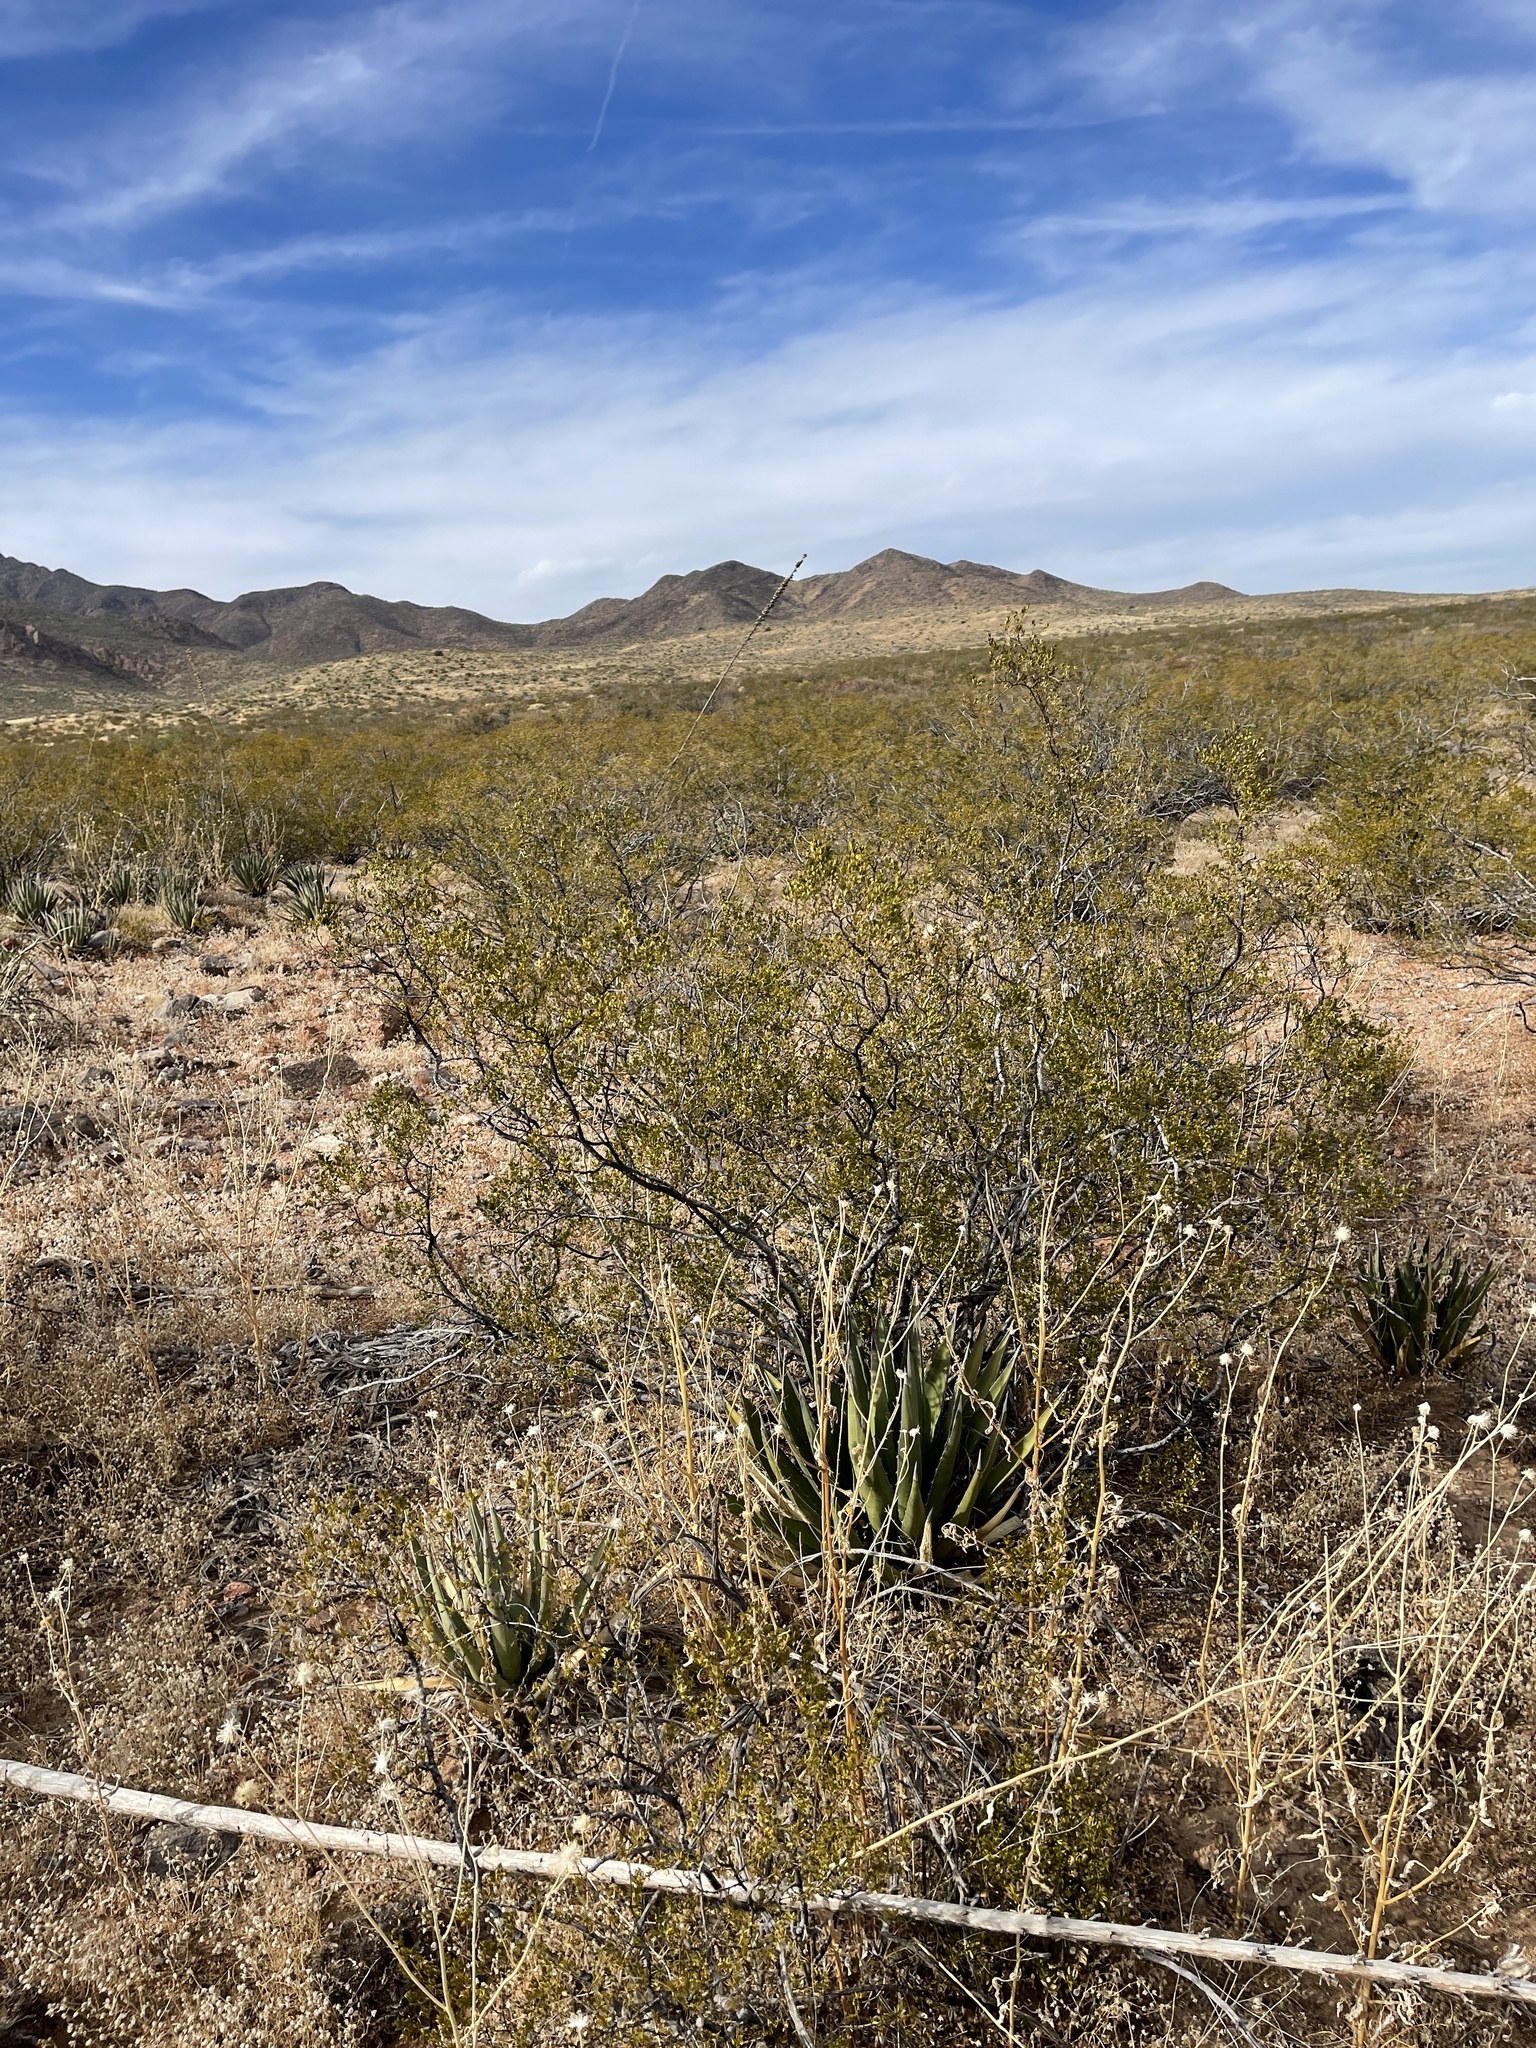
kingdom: Plantae
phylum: Tracheophyta
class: Magnoliopsida
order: Zygophyllales
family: Zygophyllaceae
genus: Larrea
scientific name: Larrea tridentata
